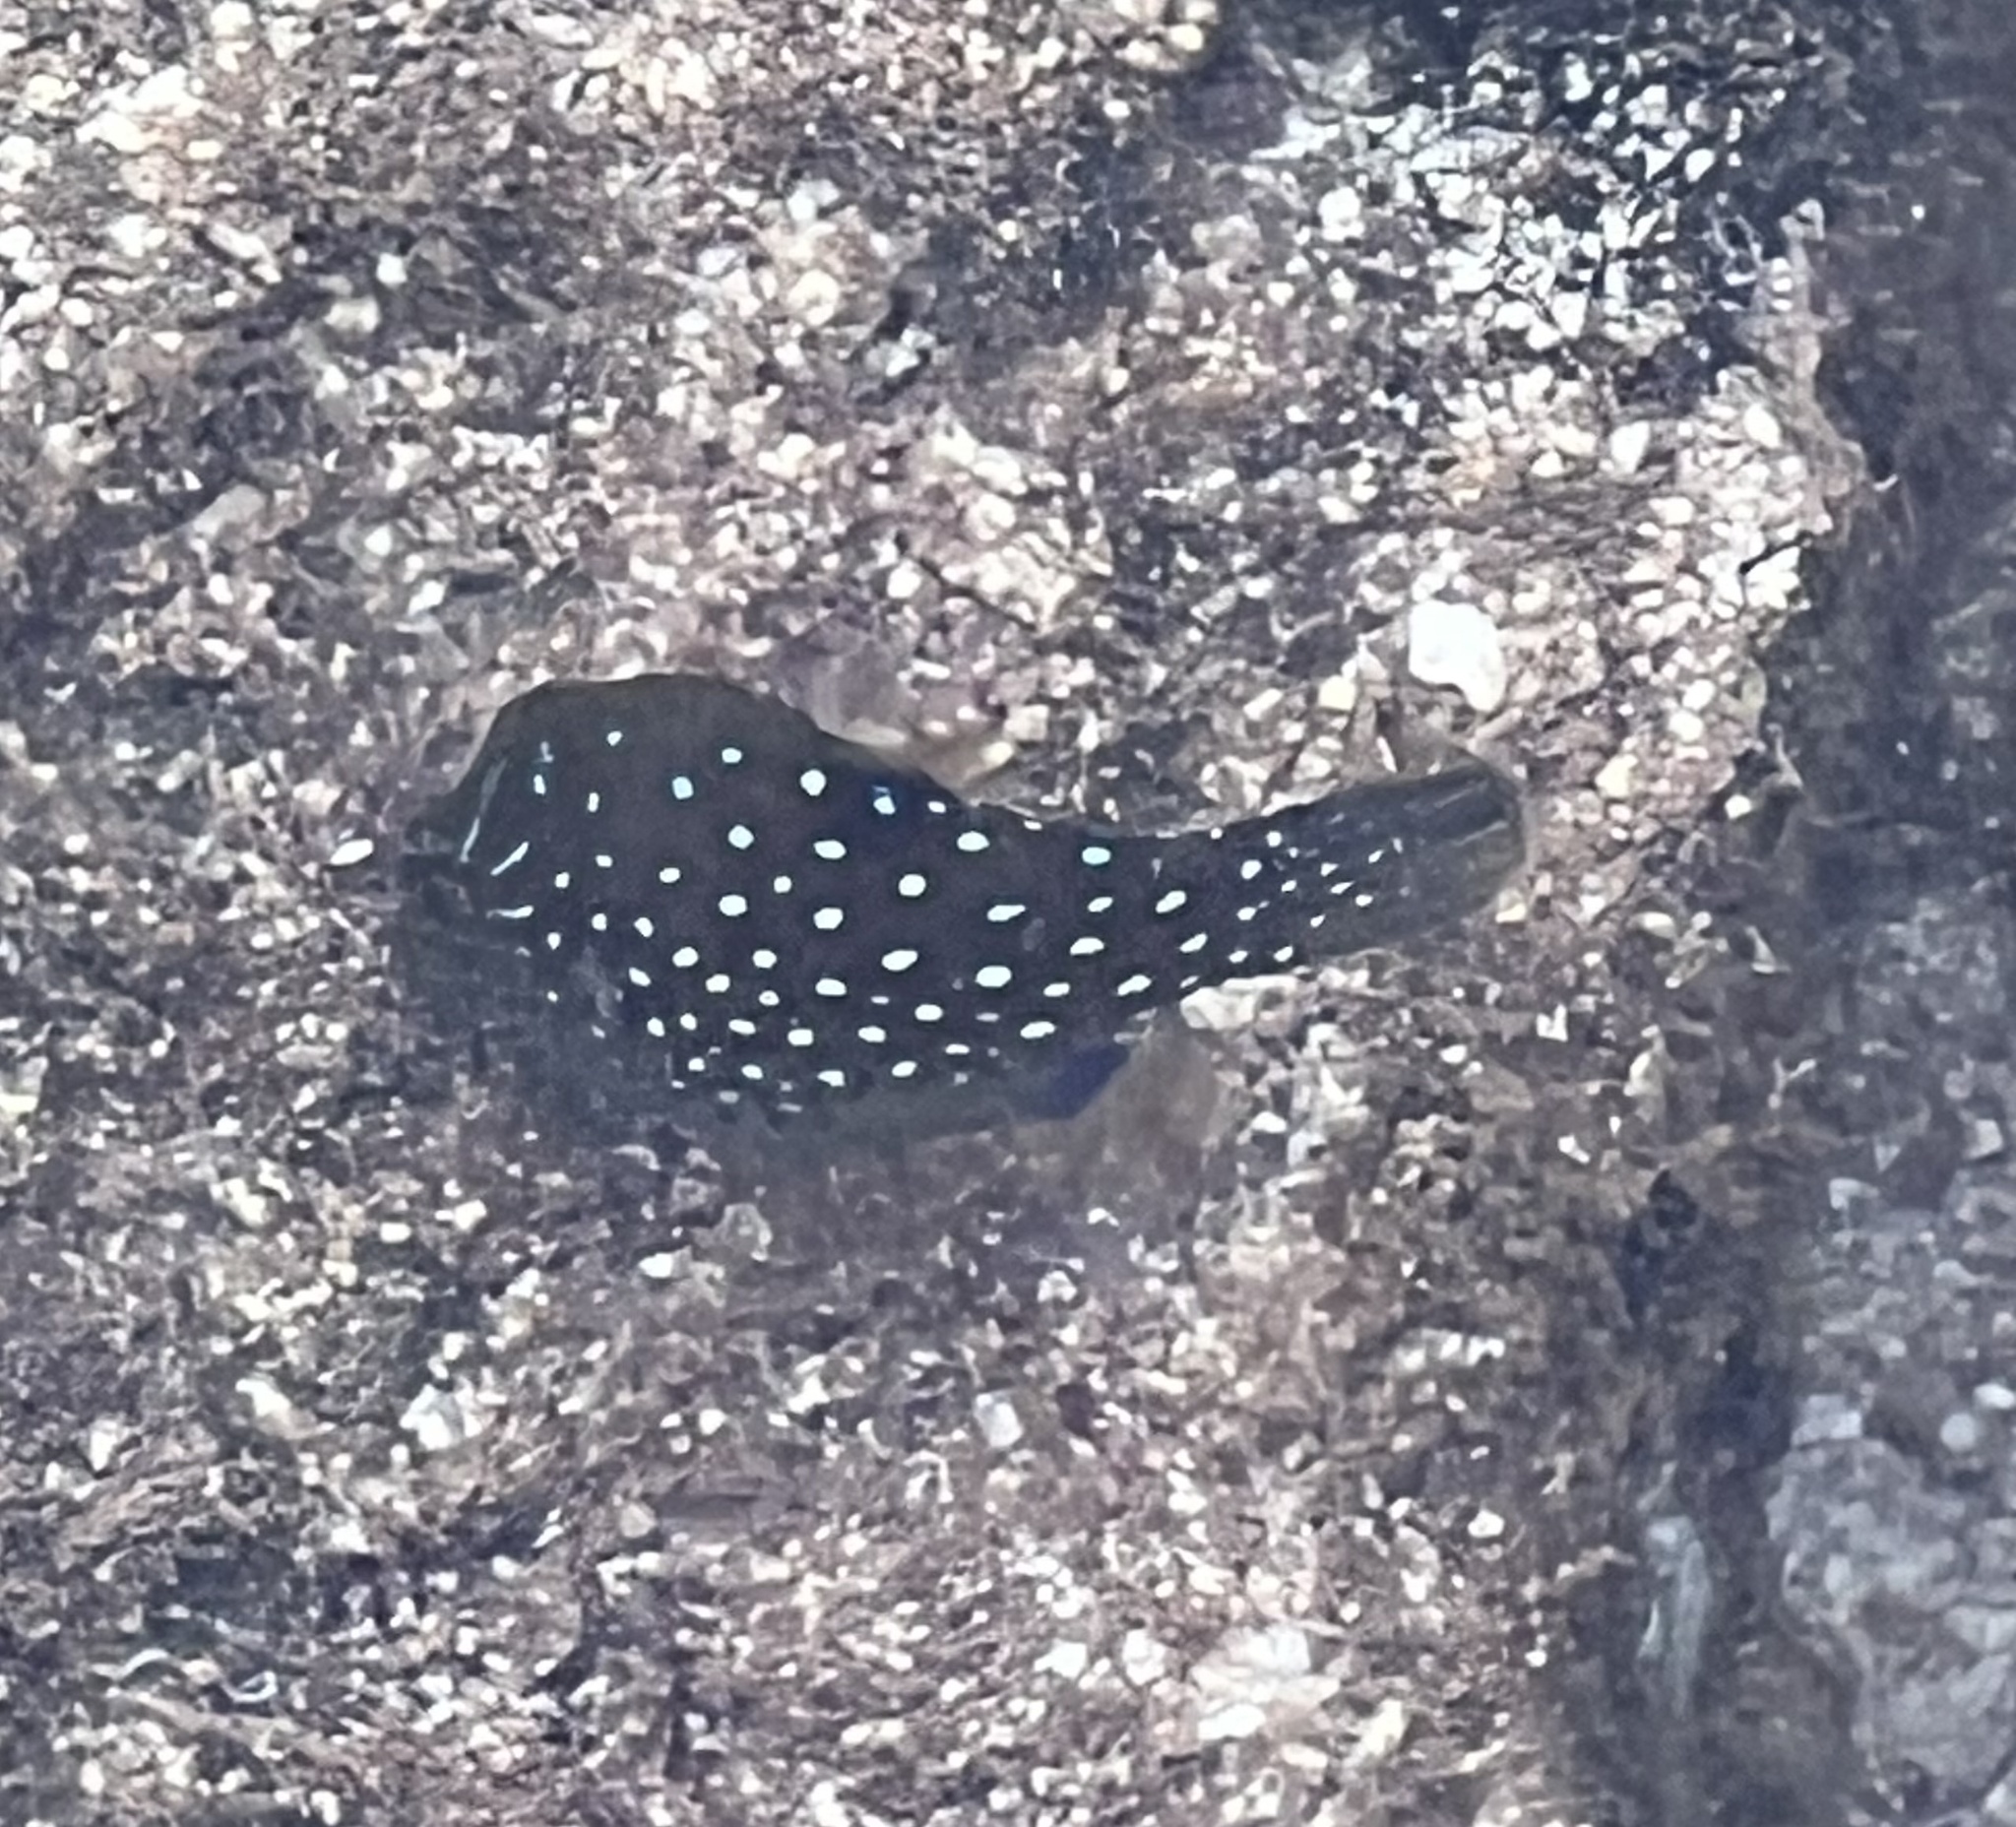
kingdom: Animalia
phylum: Chordata
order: Tetraodontiformes
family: Tetraodontidae
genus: Canthigaster
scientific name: Canthigaster amboinensis
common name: Ambon pufferfish
